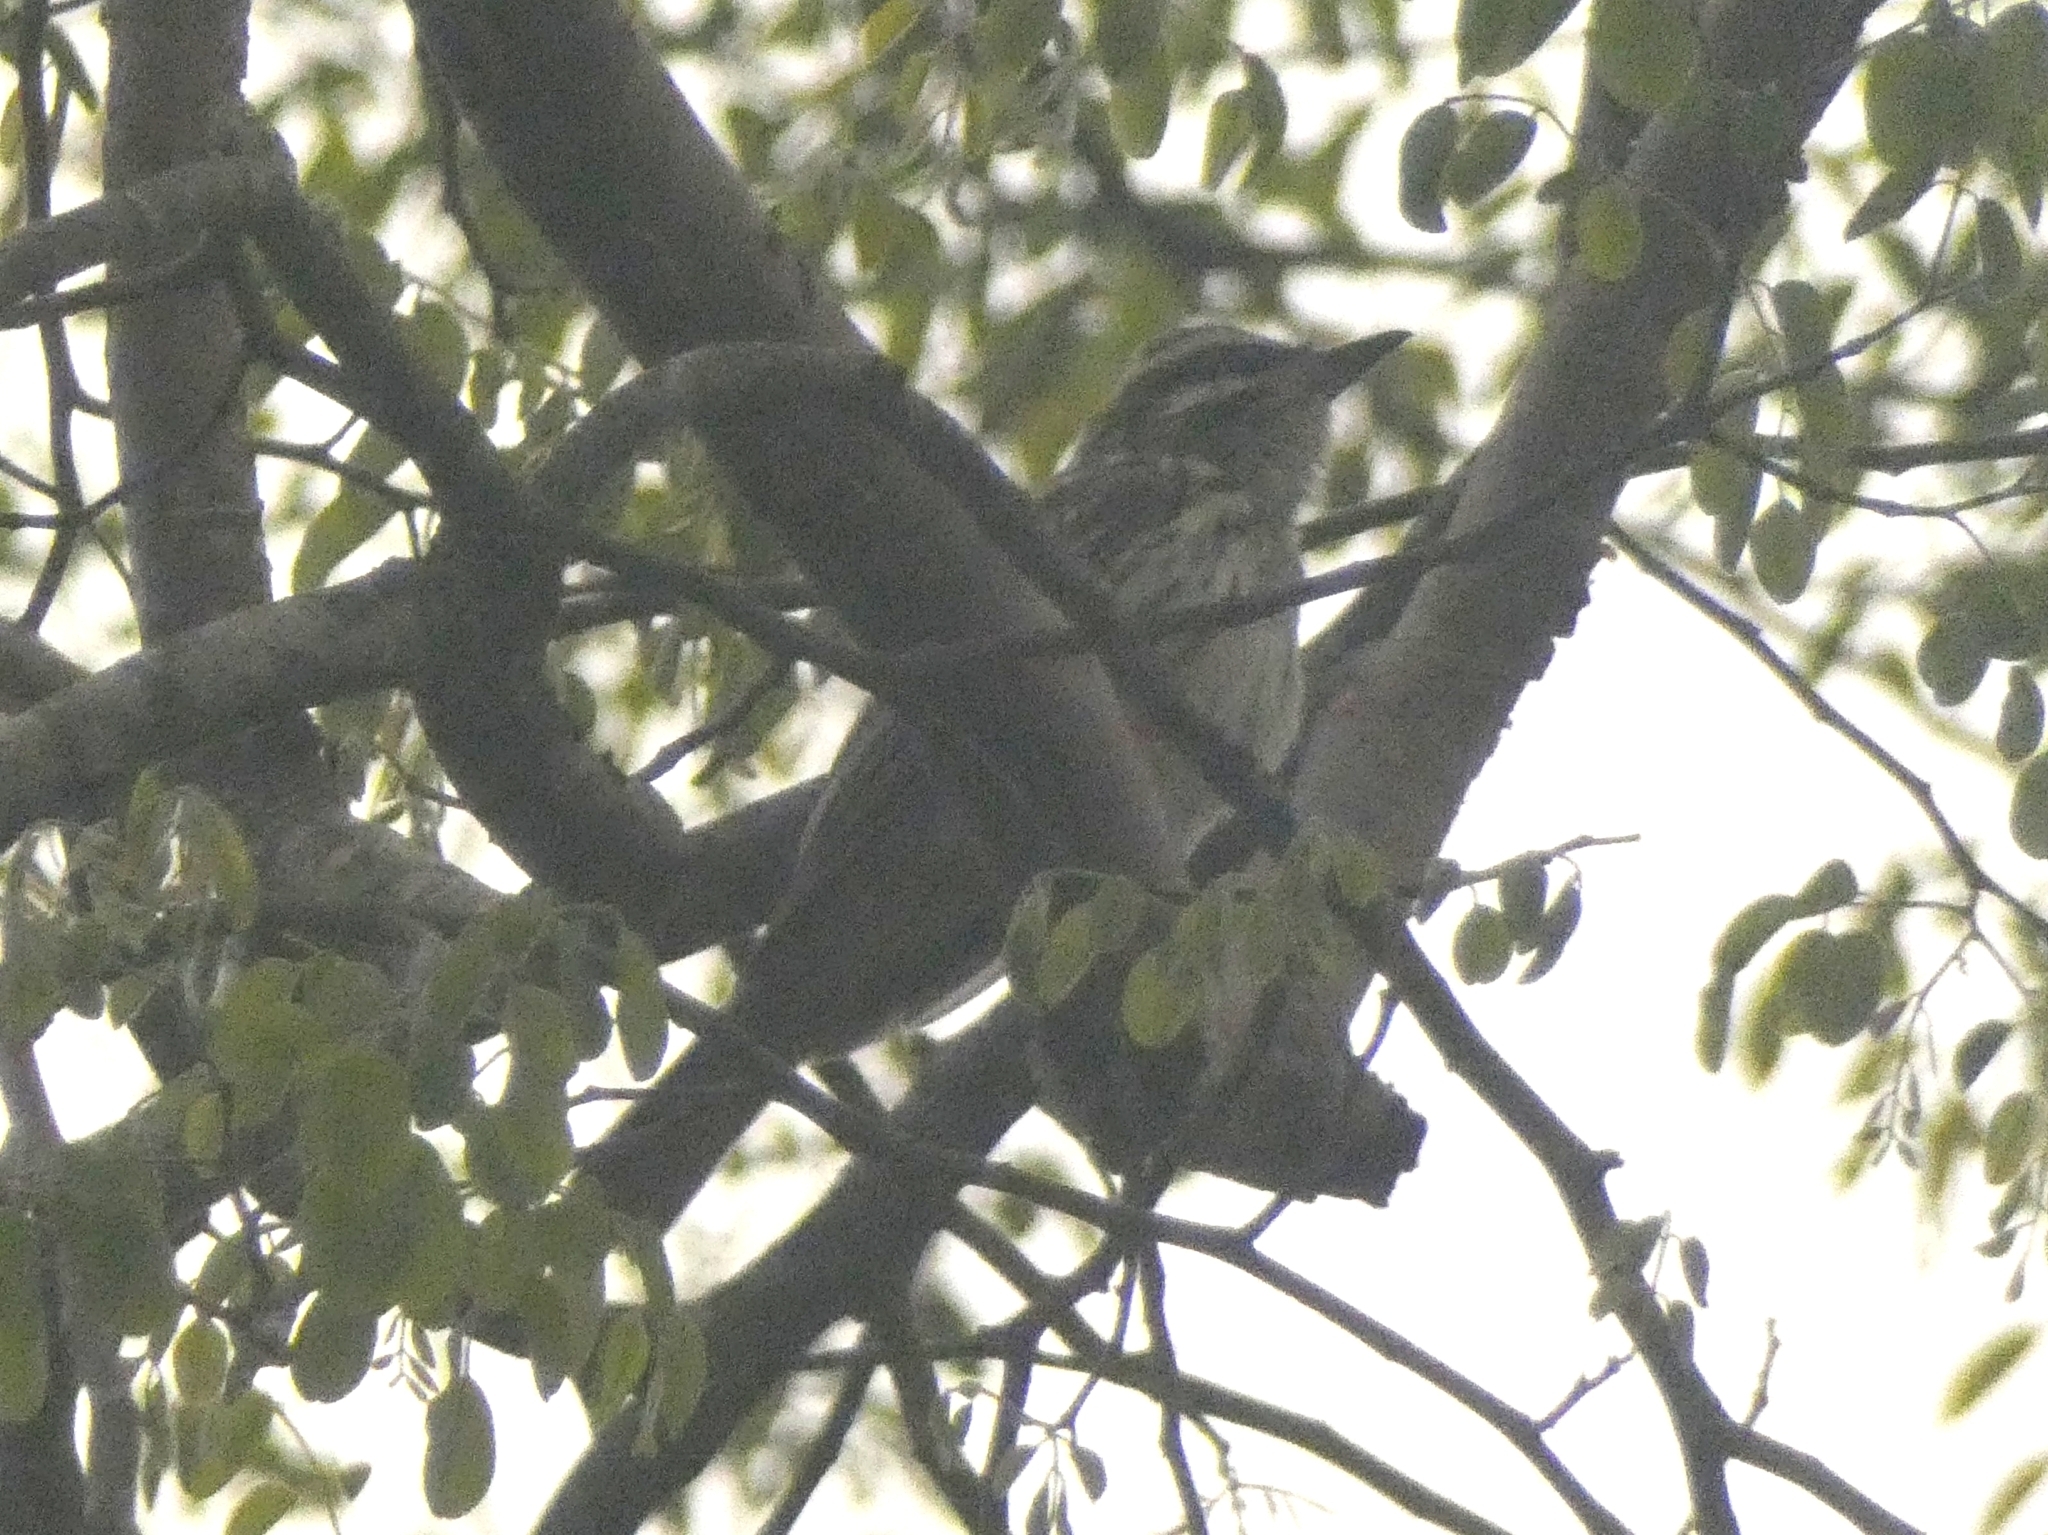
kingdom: Animalia
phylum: Chordata
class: Aves
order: Passeriformes
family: Tyrannidae
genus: Empidonomus
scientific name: Empidonomus varius
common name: Variegated flycatcher
